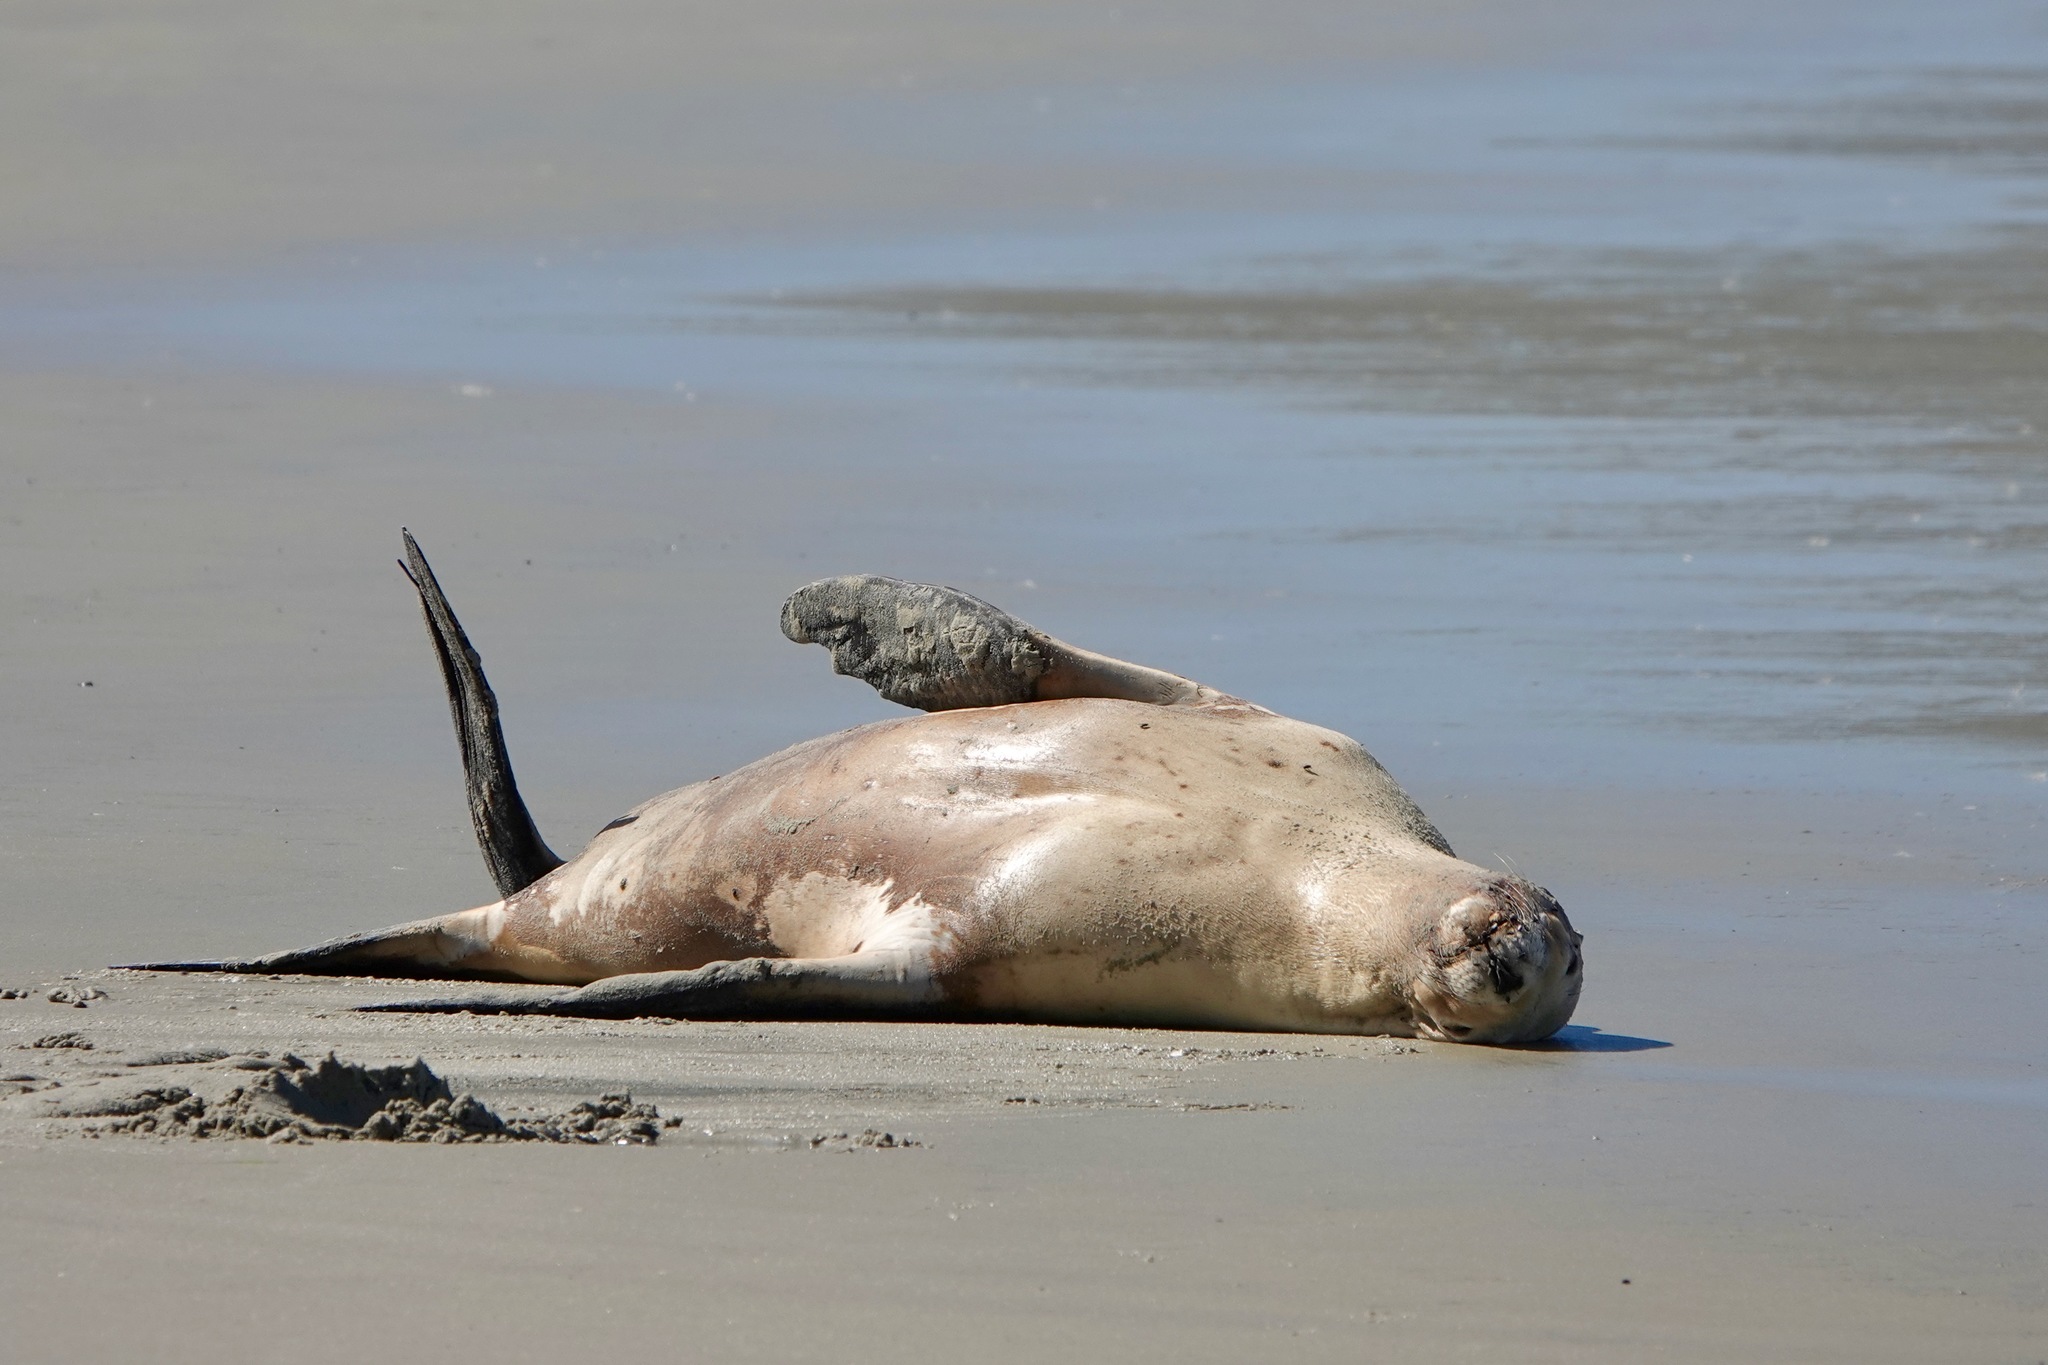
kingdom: Animalia
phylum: Chordata
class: Mammalia
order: Carnivora
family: Otariidae
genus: Phocarctos
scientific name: Phocarctos hookeri
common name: New zealand sea lion
